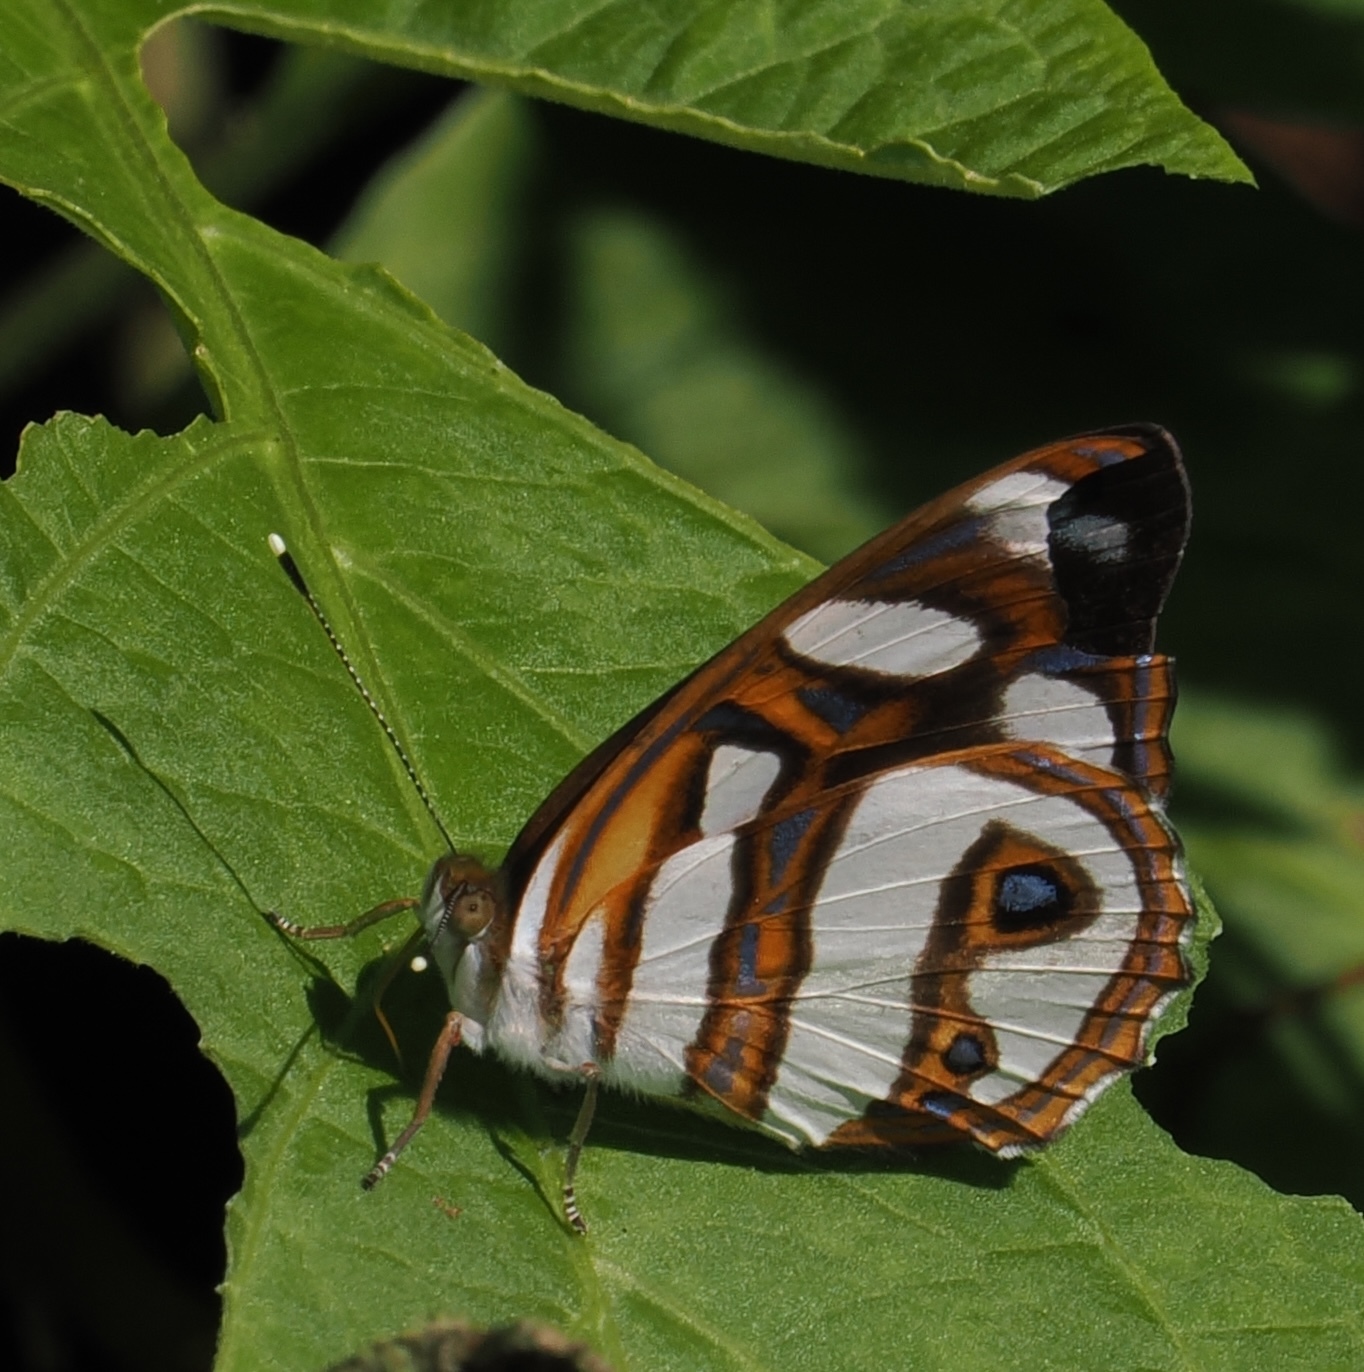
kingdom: Animalia
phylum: Arthropoda
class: Insecta
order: Lepidoptera
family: Nymphalidae
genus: Dynamine
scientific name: Dynamine aerata
